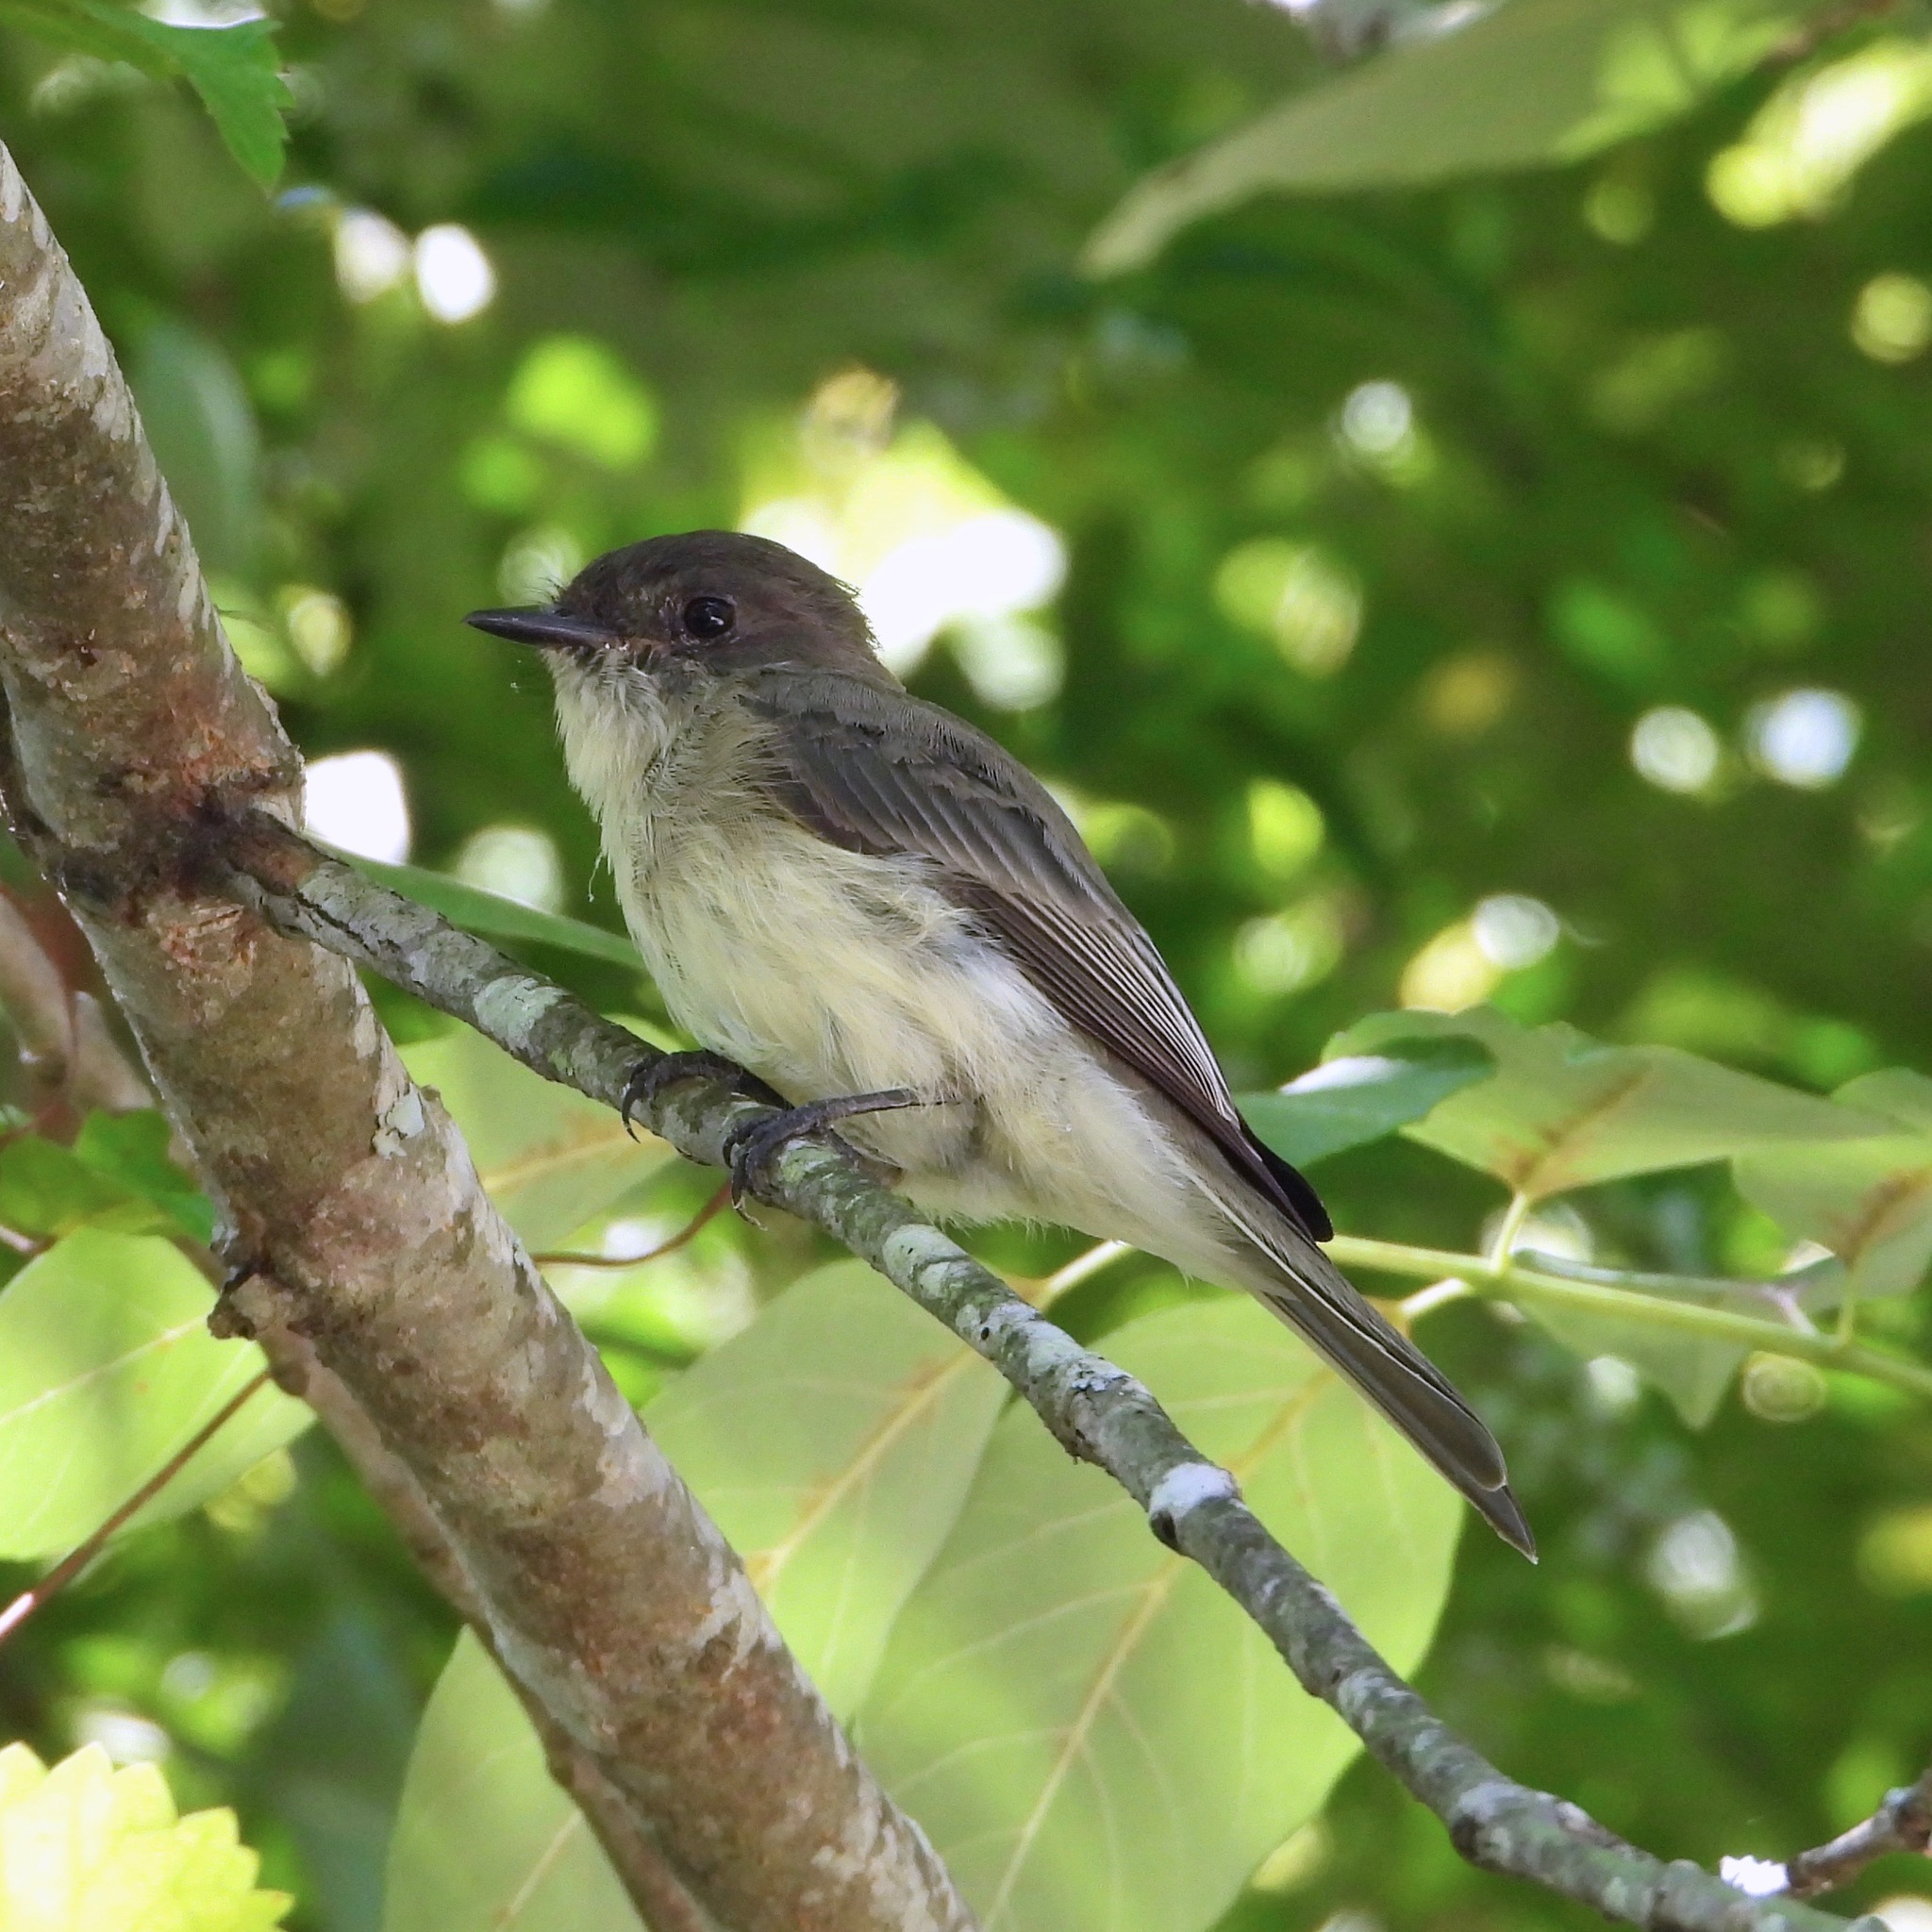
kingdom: Animalia
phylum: Chordata
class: Aves
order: Passeriformes
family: Tyrannidae
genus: Sayornis
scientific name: Sayornis phoebe
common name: Eastern phoebe
